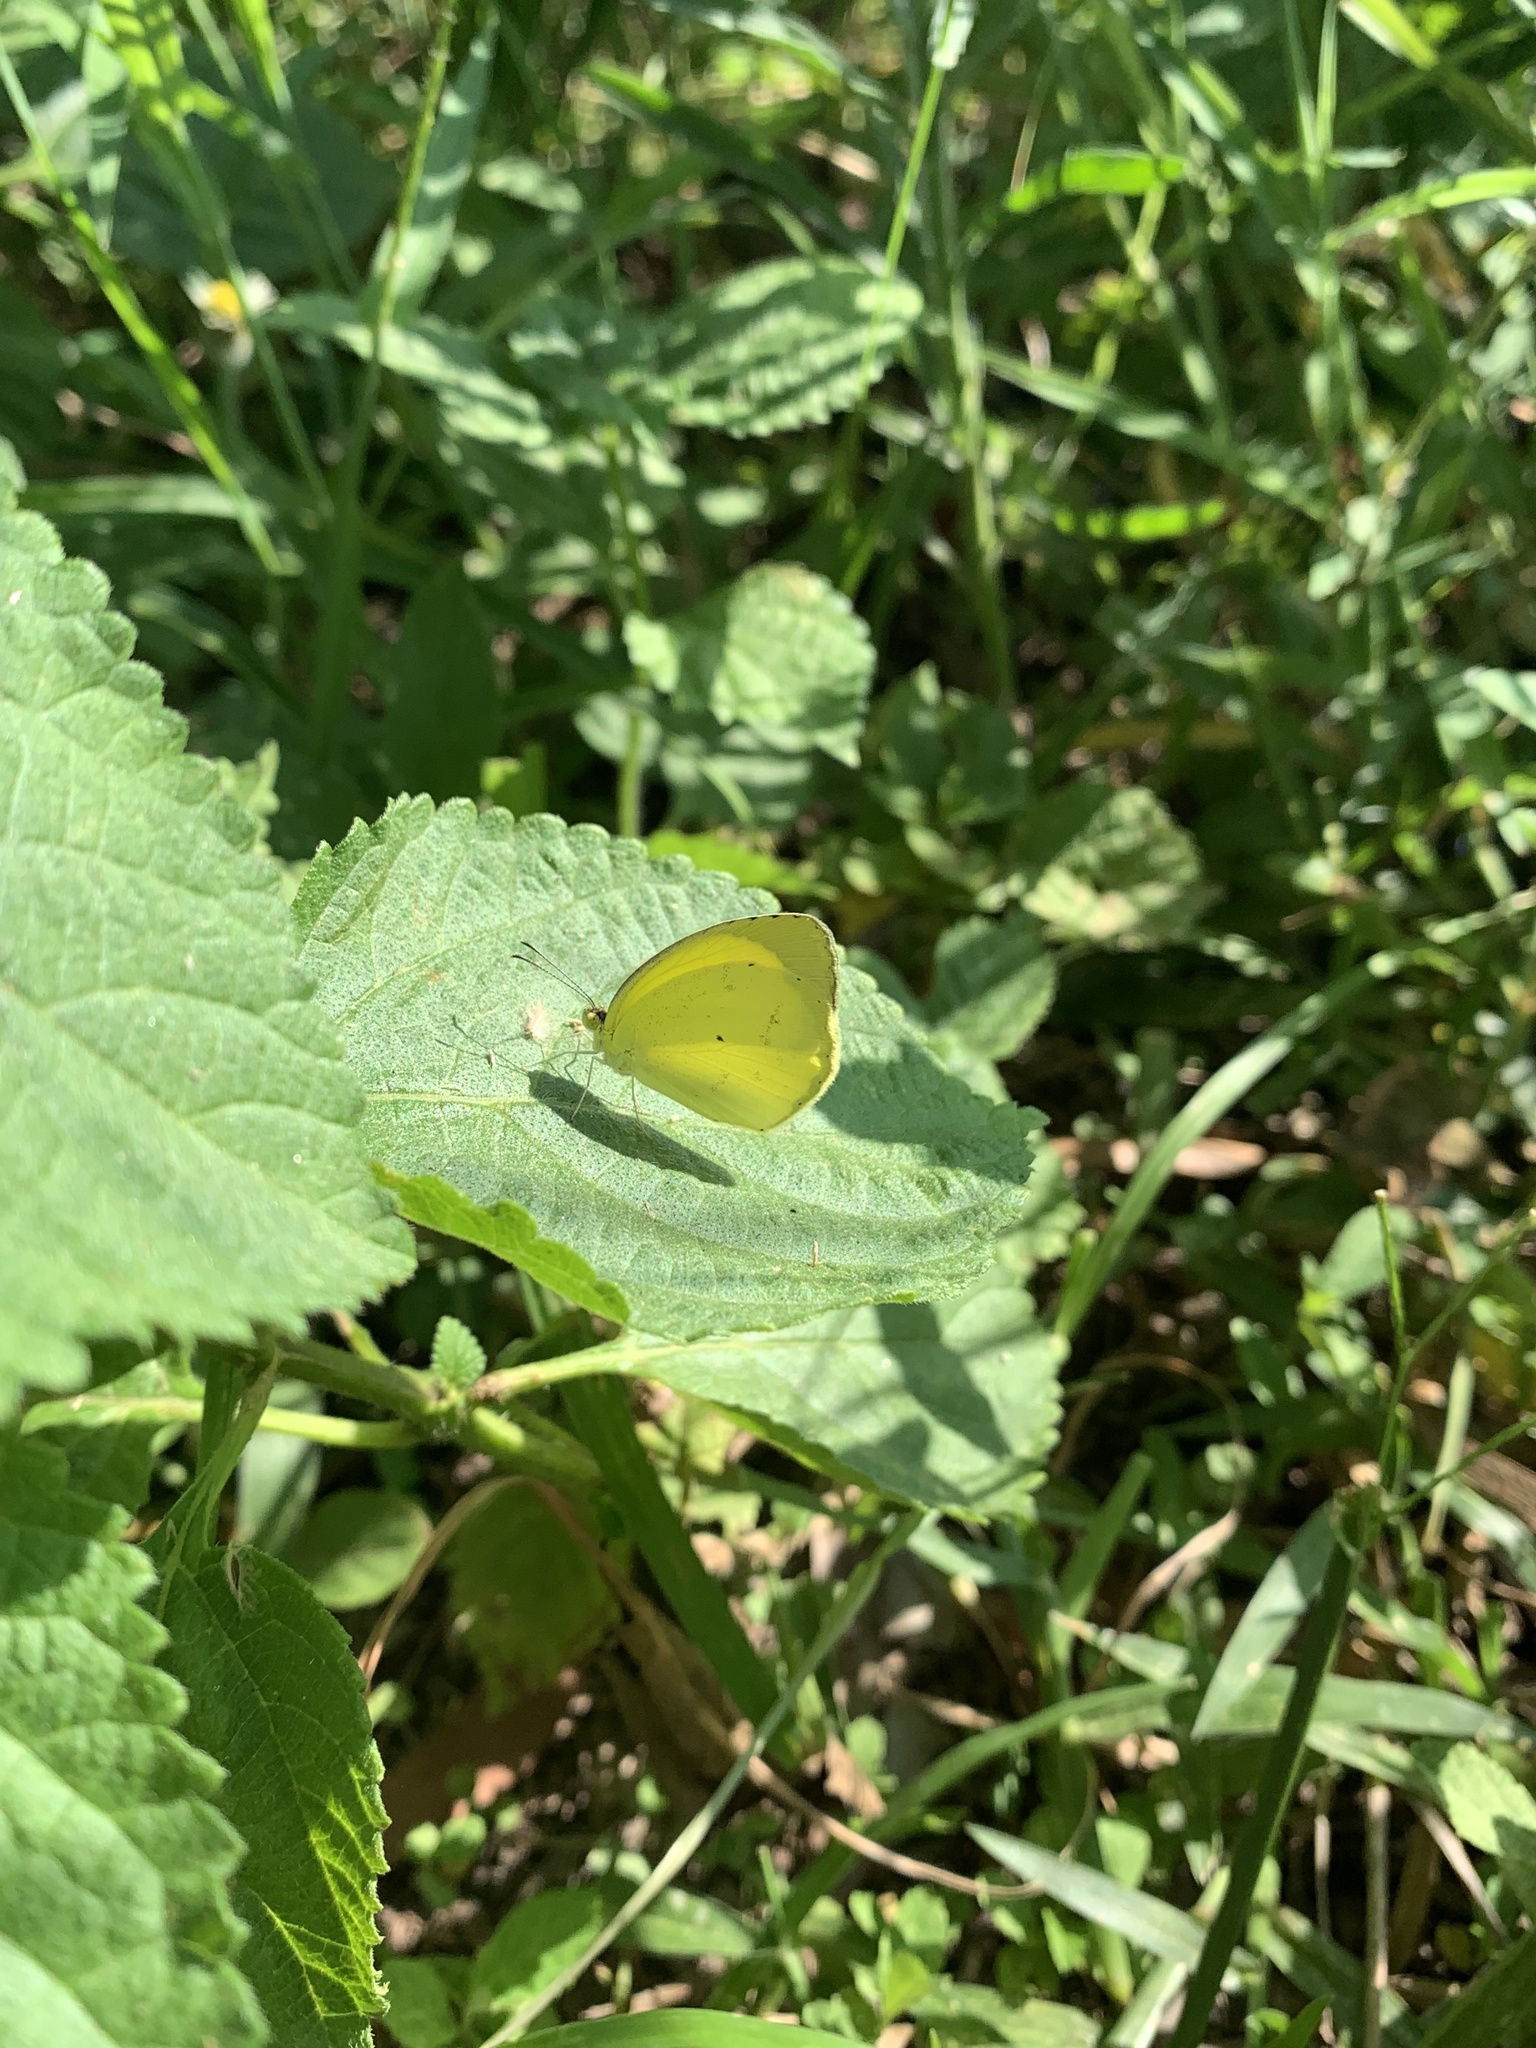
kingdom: Animalia
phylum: Arthropoda
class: Insecta
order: Lepidoptera
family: Pieridae
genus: Pyrisitia
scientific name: Pyrisitia nise
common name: Mimosa yellow
